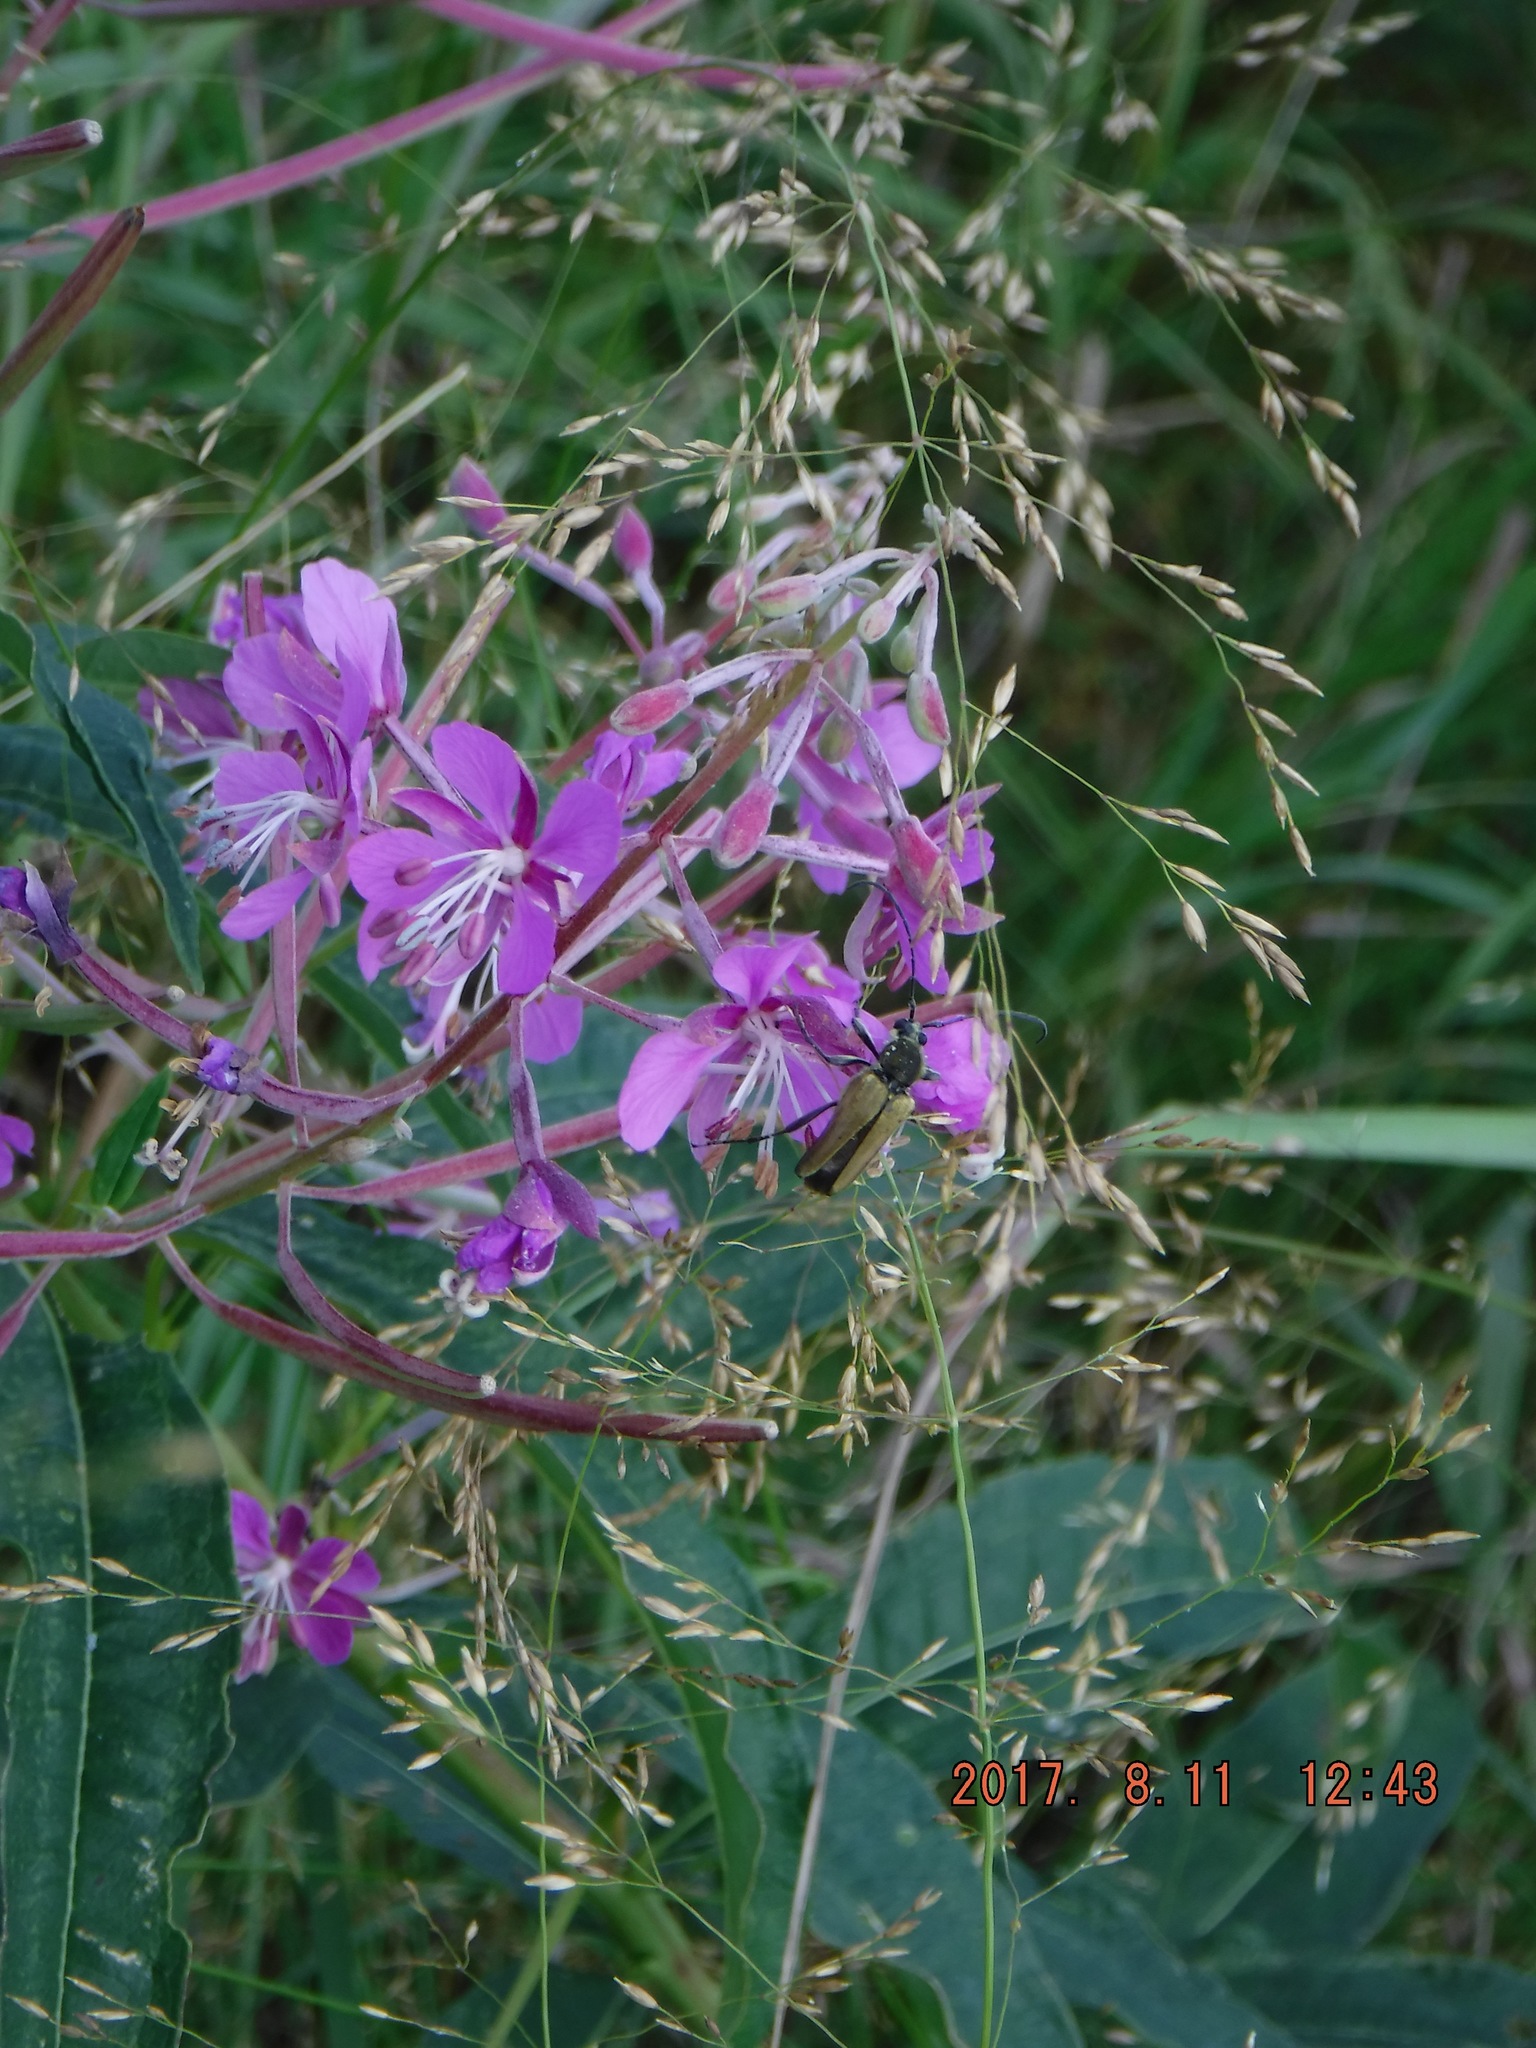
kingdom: Animalia
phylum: Arthropoda
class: Insecta
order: Coleoptera
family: Cerambycidae
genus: Cosmosalia
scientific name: Cosmosalia chrysocoma
